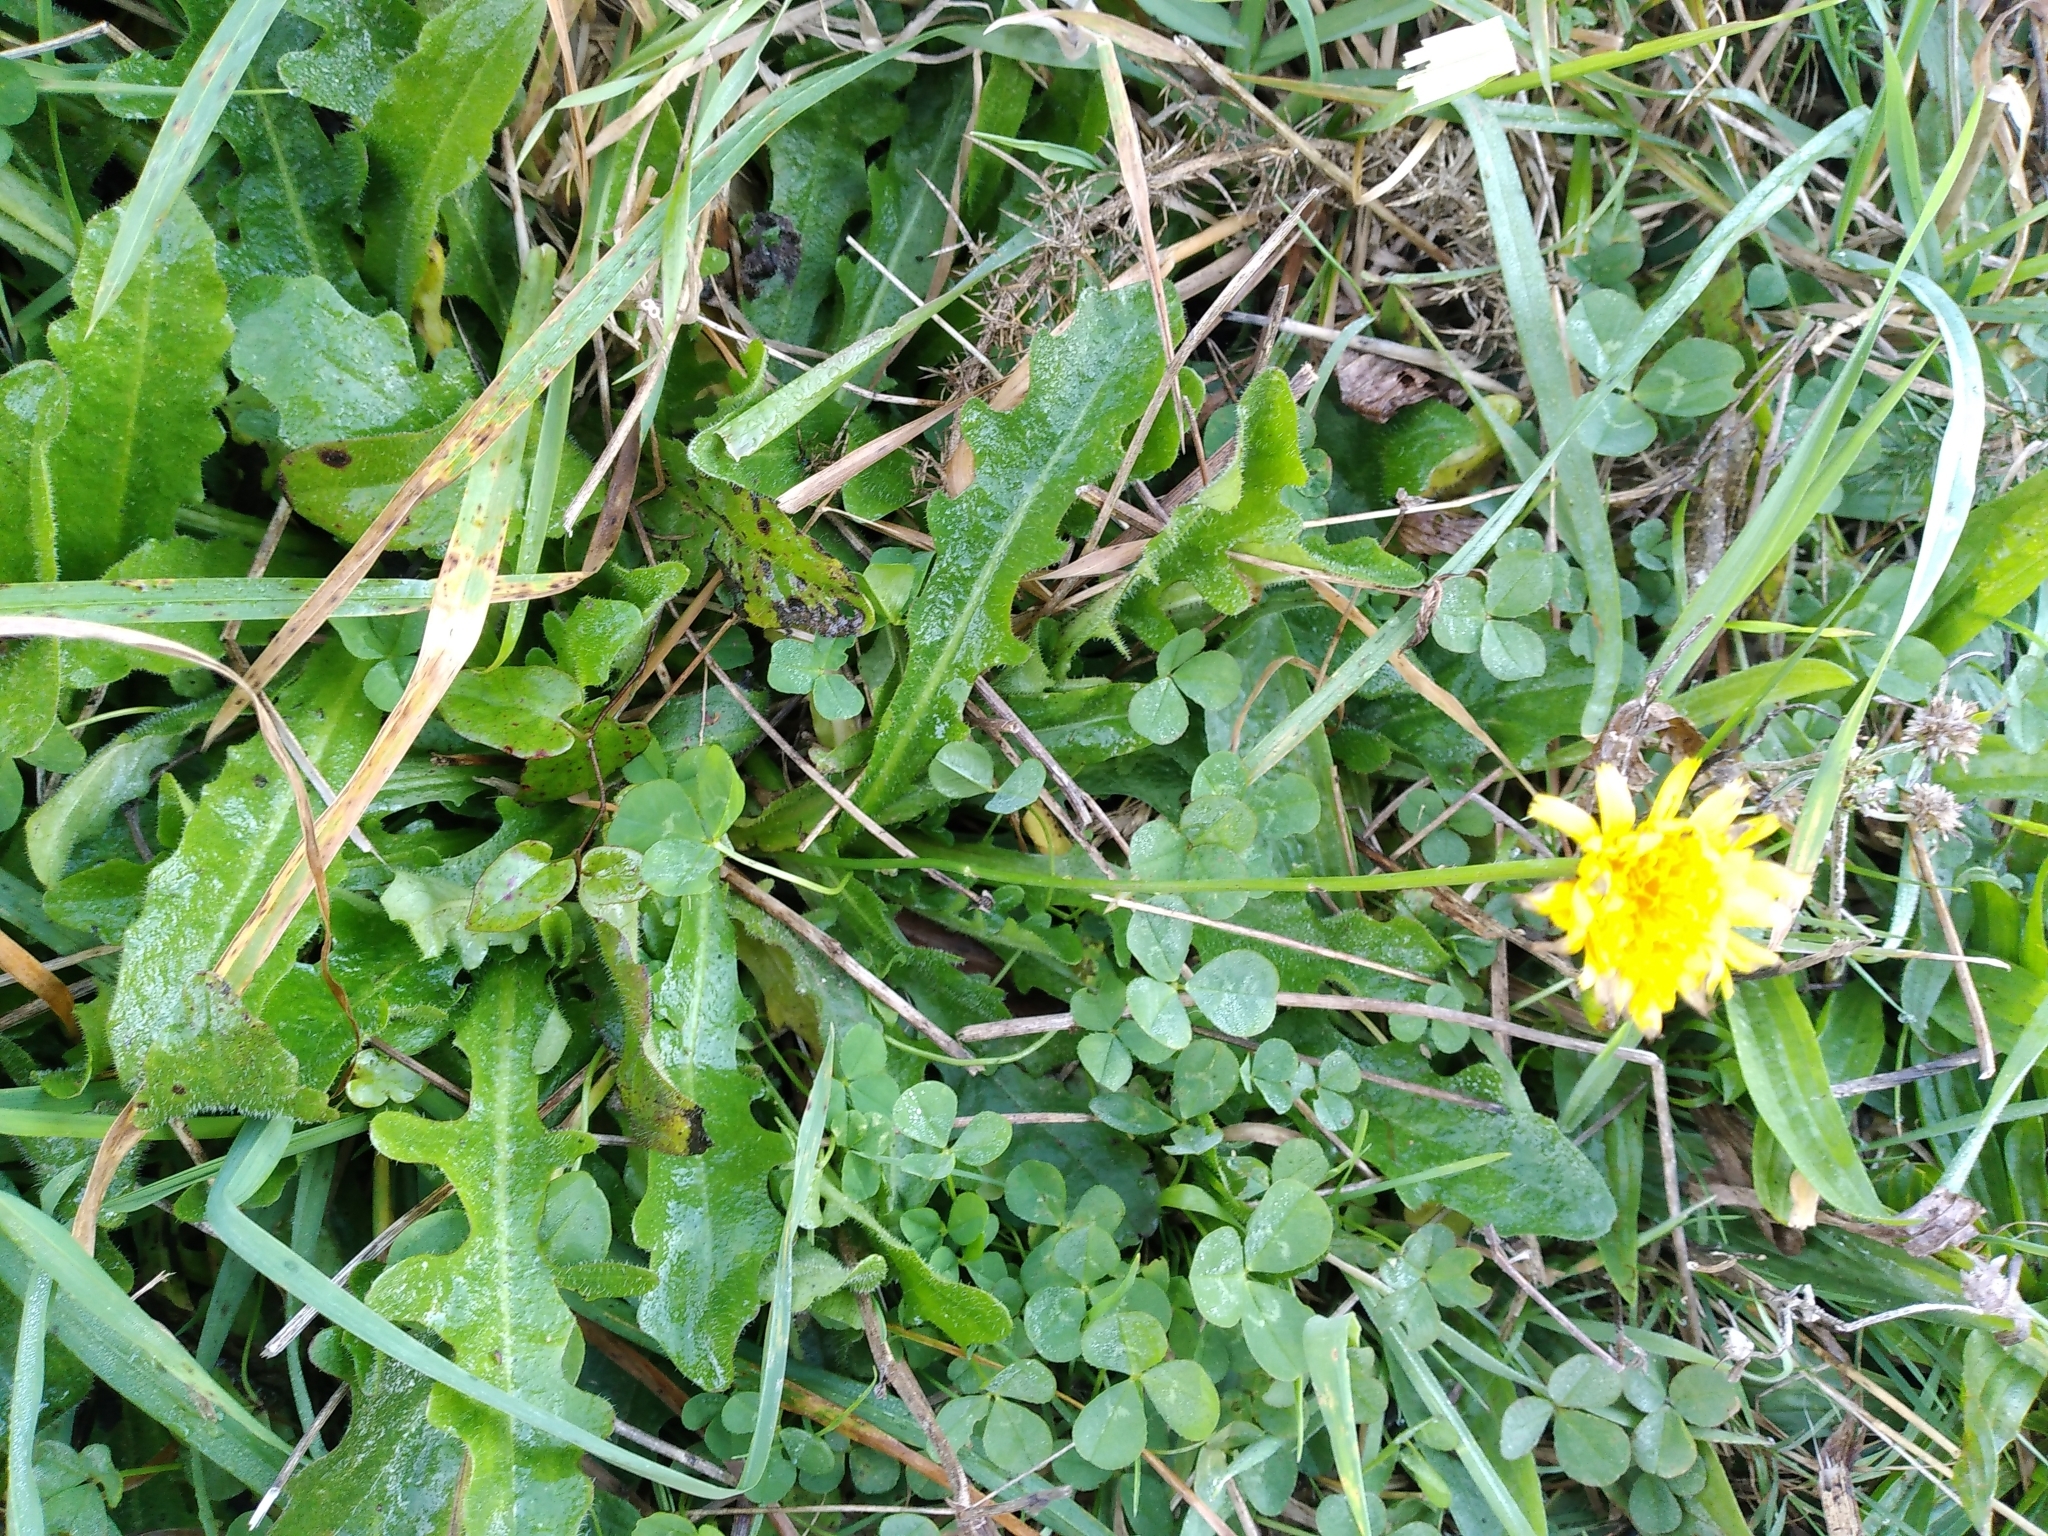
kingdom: Plantae
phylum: Tracheophyta
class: Magnoliopsida
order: Asterales
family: Asteraceae
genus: Hypochaeris
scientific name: Hypochaeris radicata
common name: Flatweed
